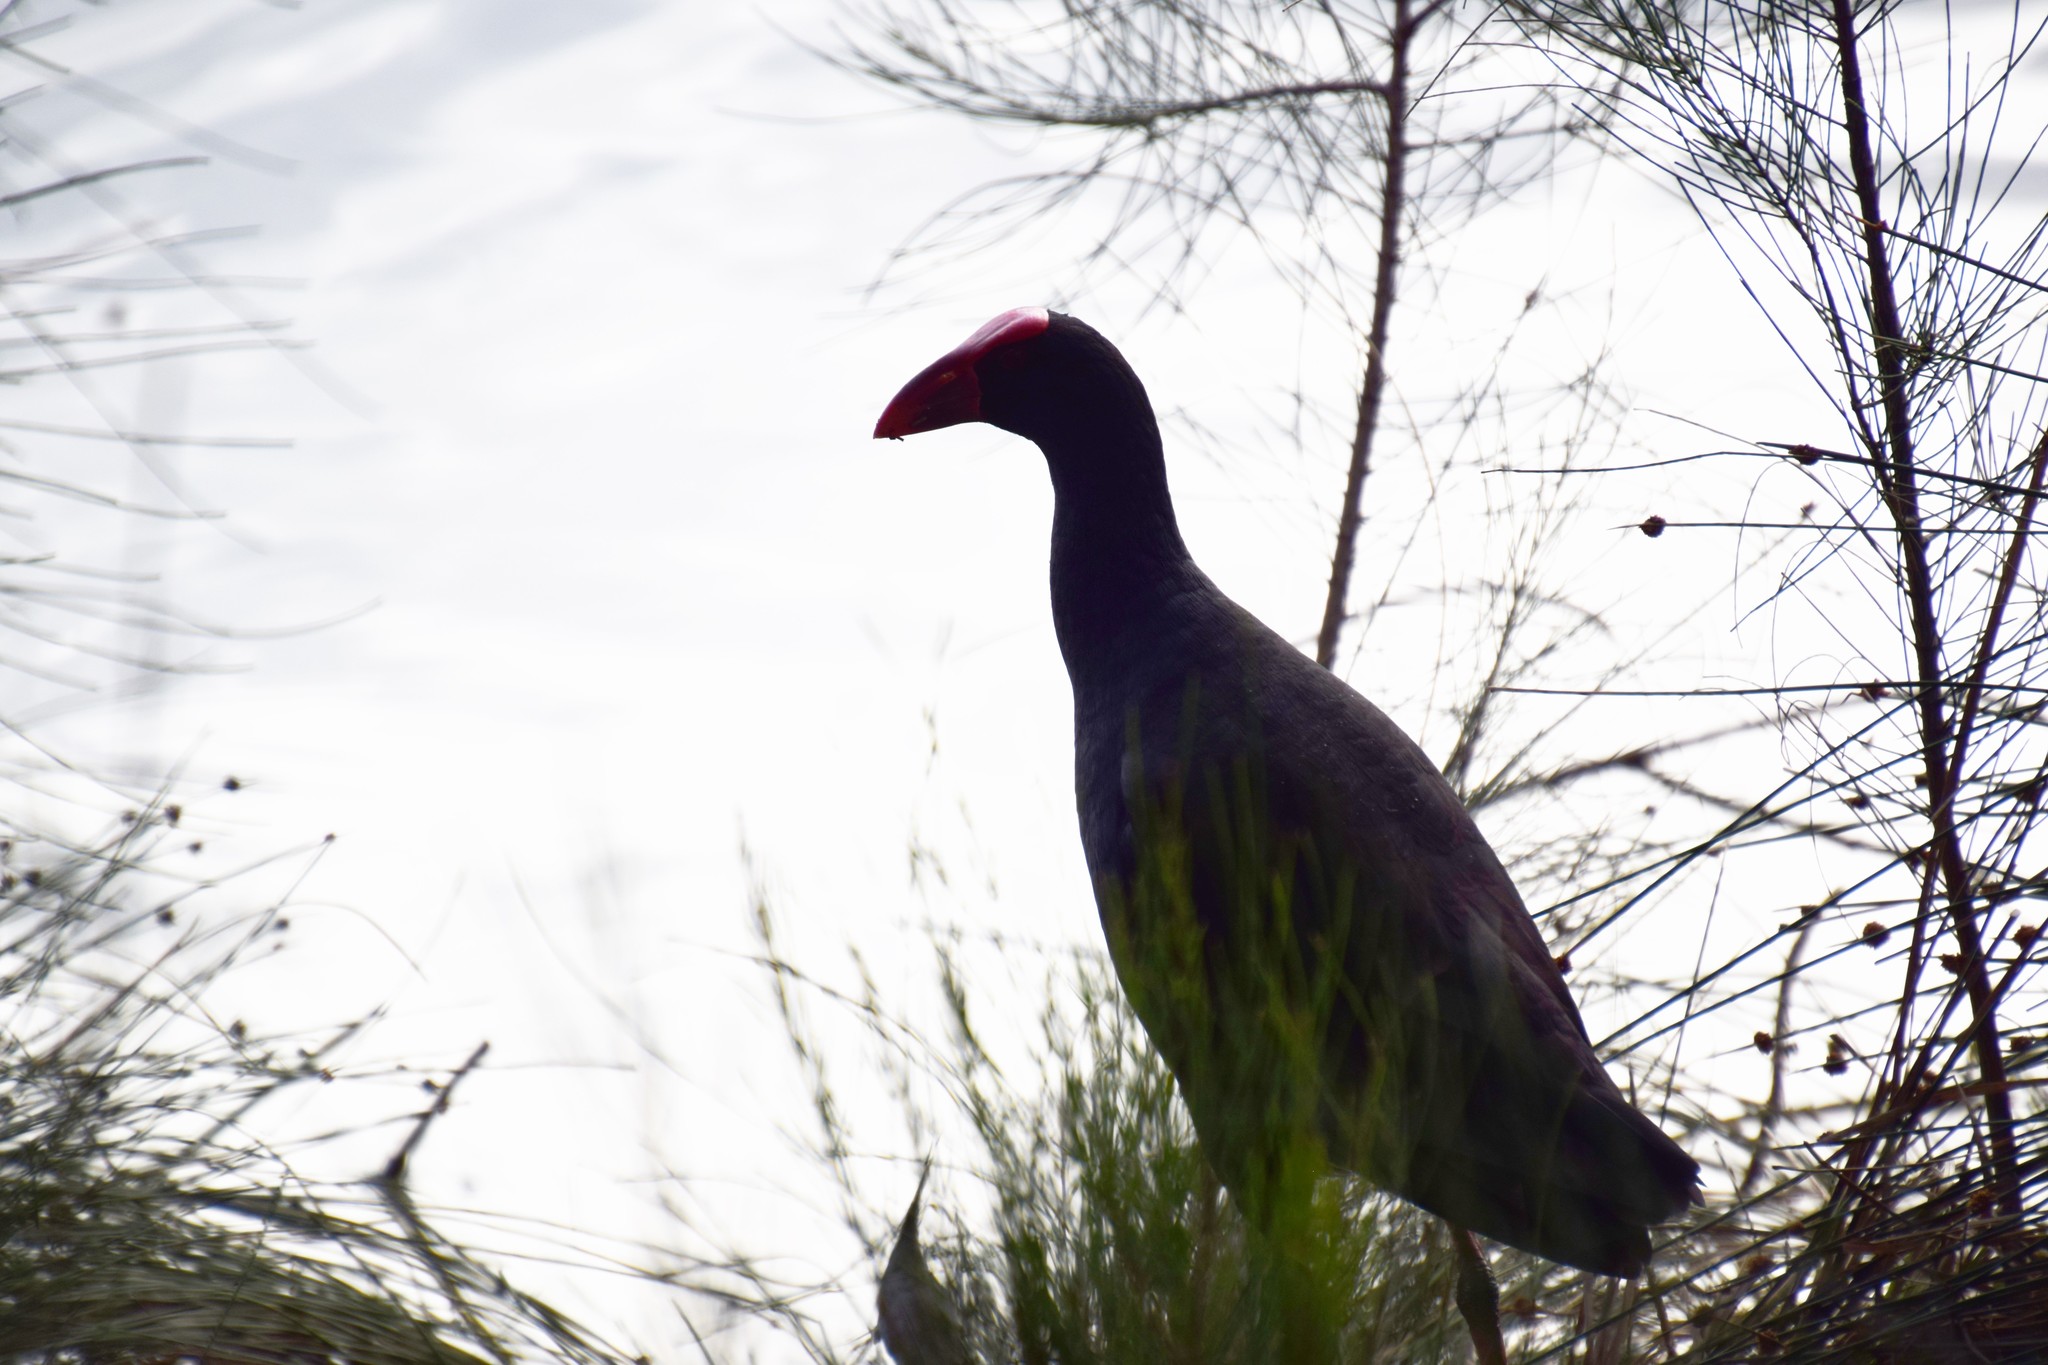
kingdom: Animalia
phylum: Chordata
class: Aves
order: Gruiformes
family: Rallidae
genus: Porphyrio
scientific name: Porphyrio melanotus
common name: Australasian swamphen
